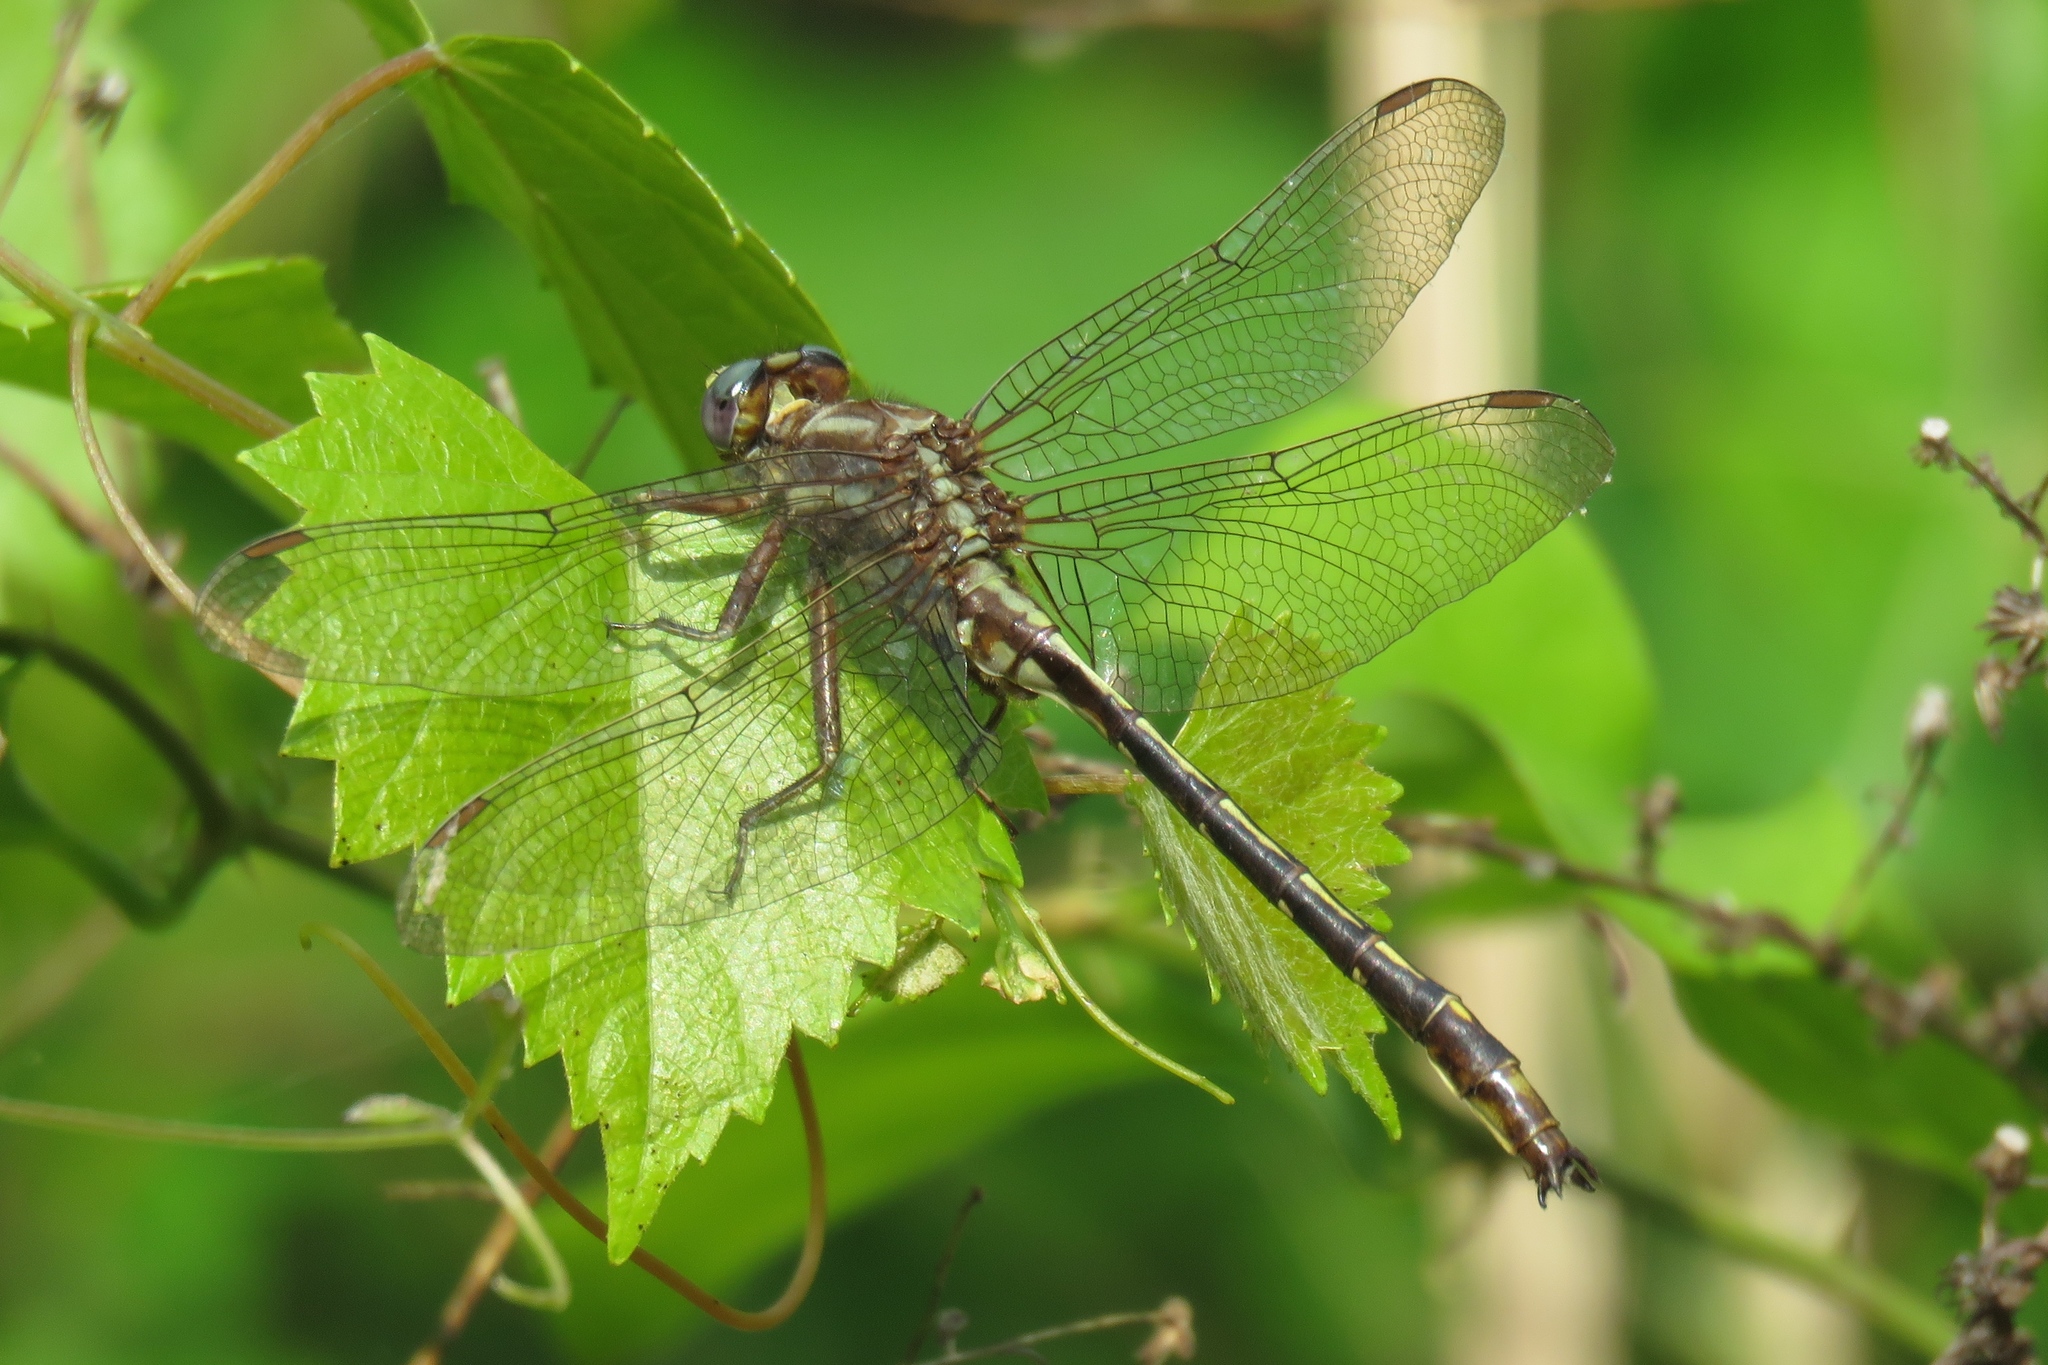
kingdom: Animalia
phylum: Arthropoda
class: Insecta
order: Odonata
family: Gomphidae
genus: Phanogomphus
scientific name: Phanogomphus lividus
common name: Ashy clubtail
